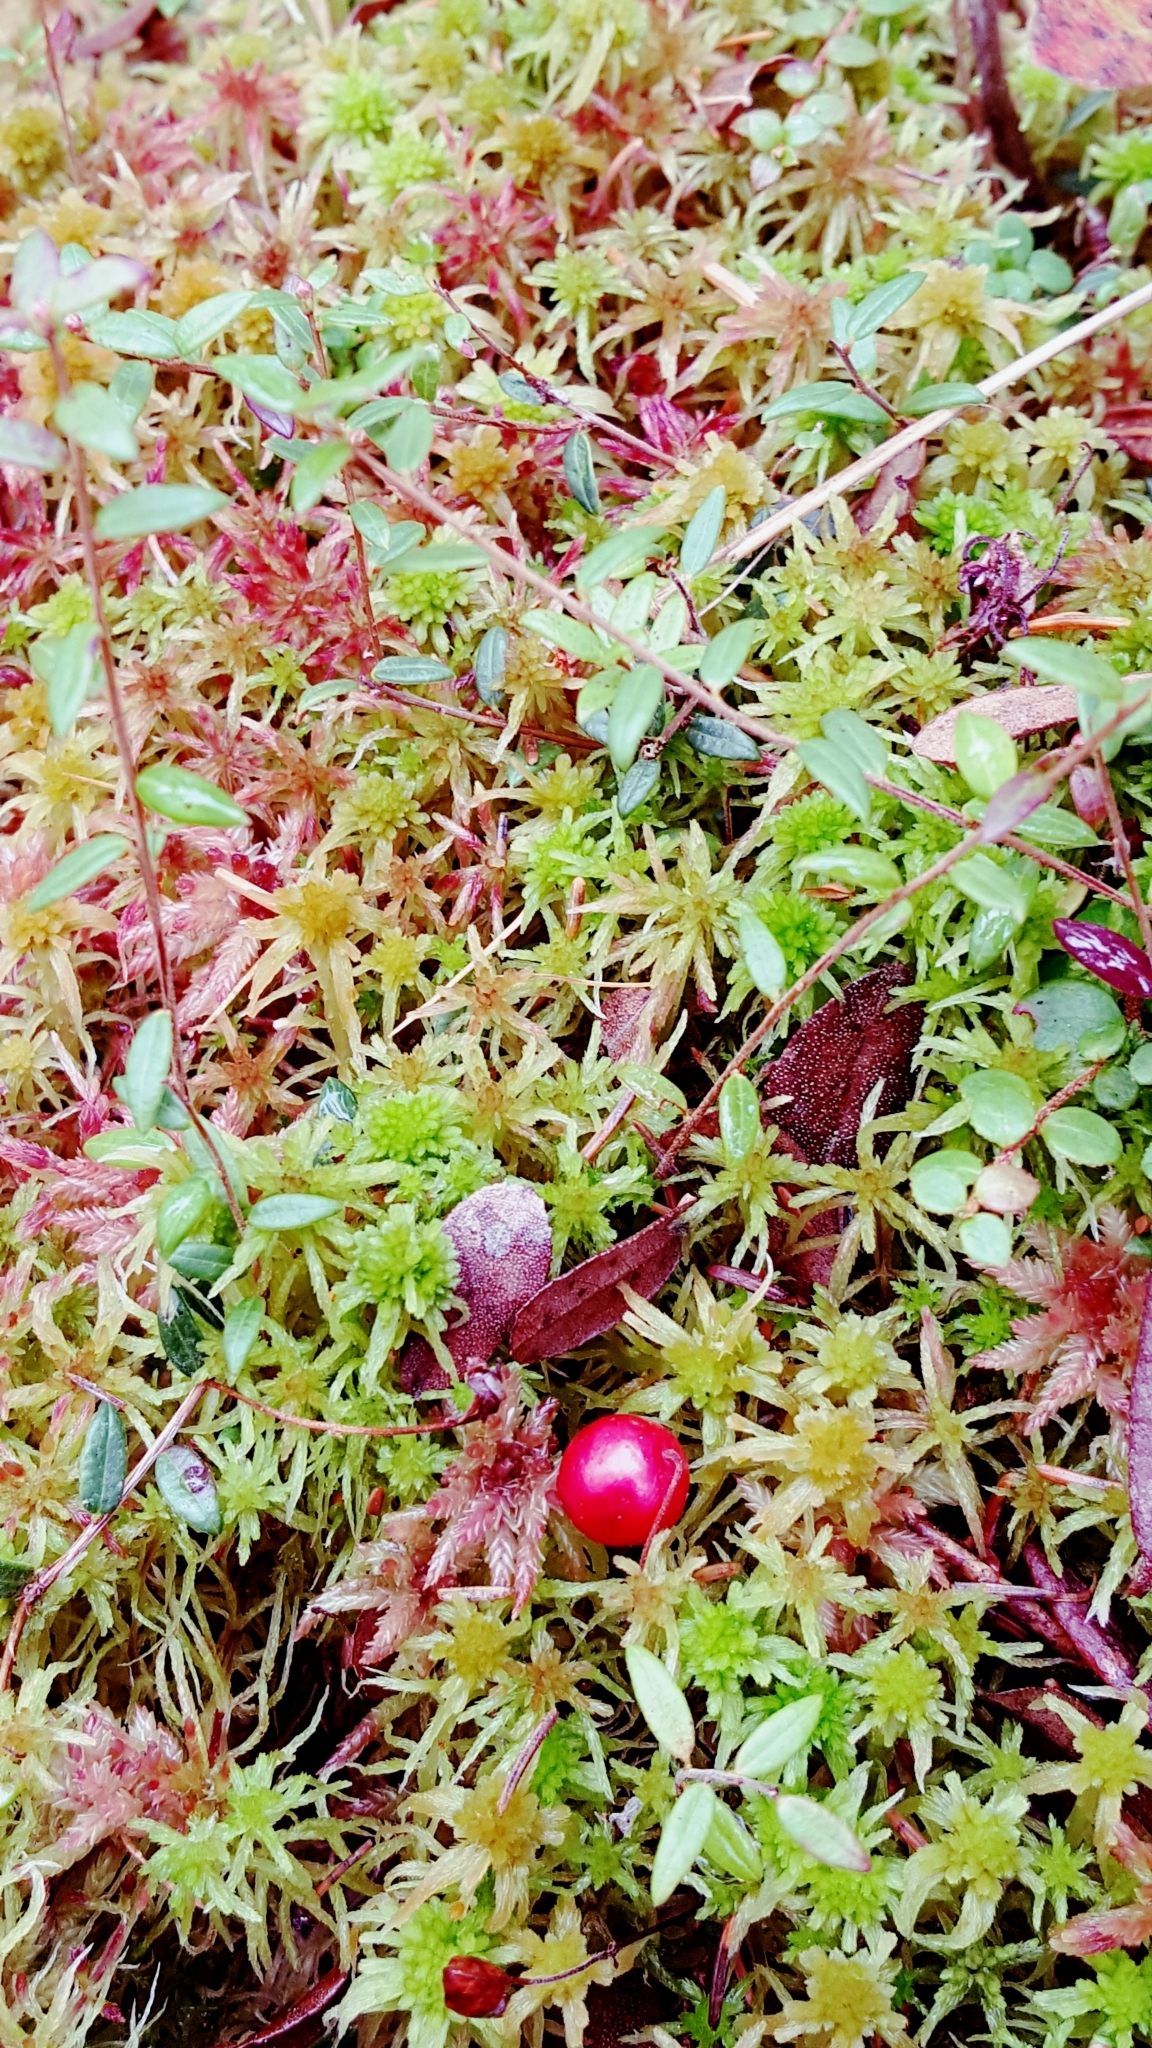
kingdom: Plantae
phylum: Tracheophyta
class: Magnoliopsida
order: Ericales
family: Ericaceae
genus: Vaccinium
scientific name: Vaccinium oxycoccos
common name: Cranberry
